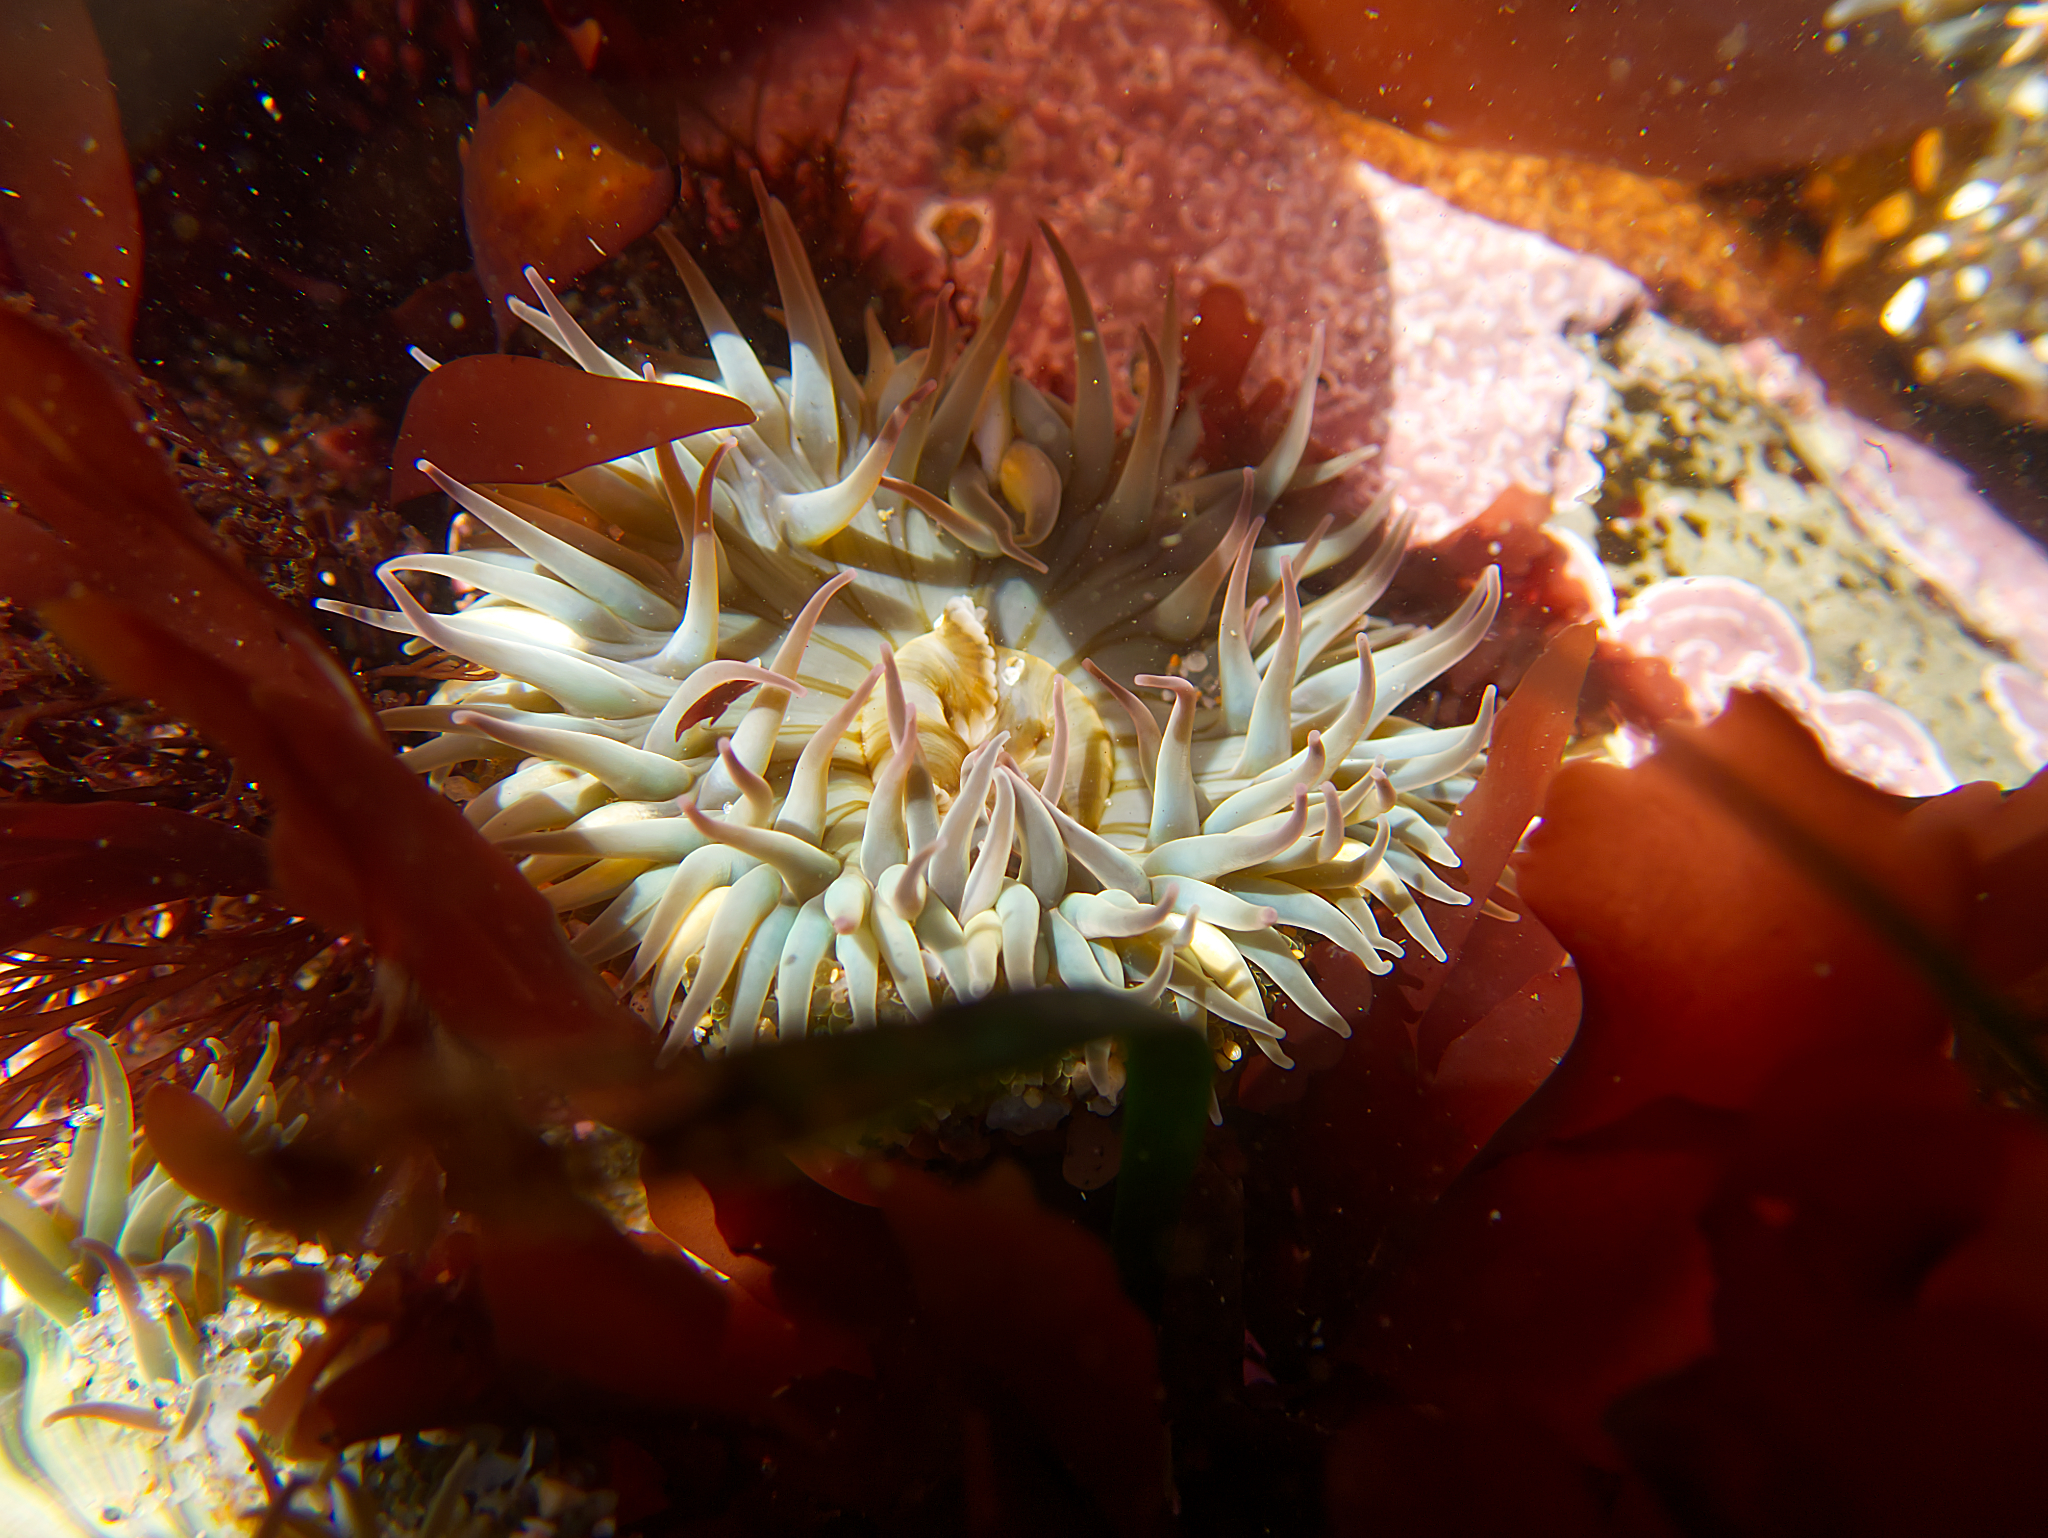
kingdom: Animalia
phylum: Cnidaria
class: Anthozoa
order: Actiniaria
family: Actiniidae
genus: Anthopleura
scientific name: Anthopleura sola
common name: Sun anemone
